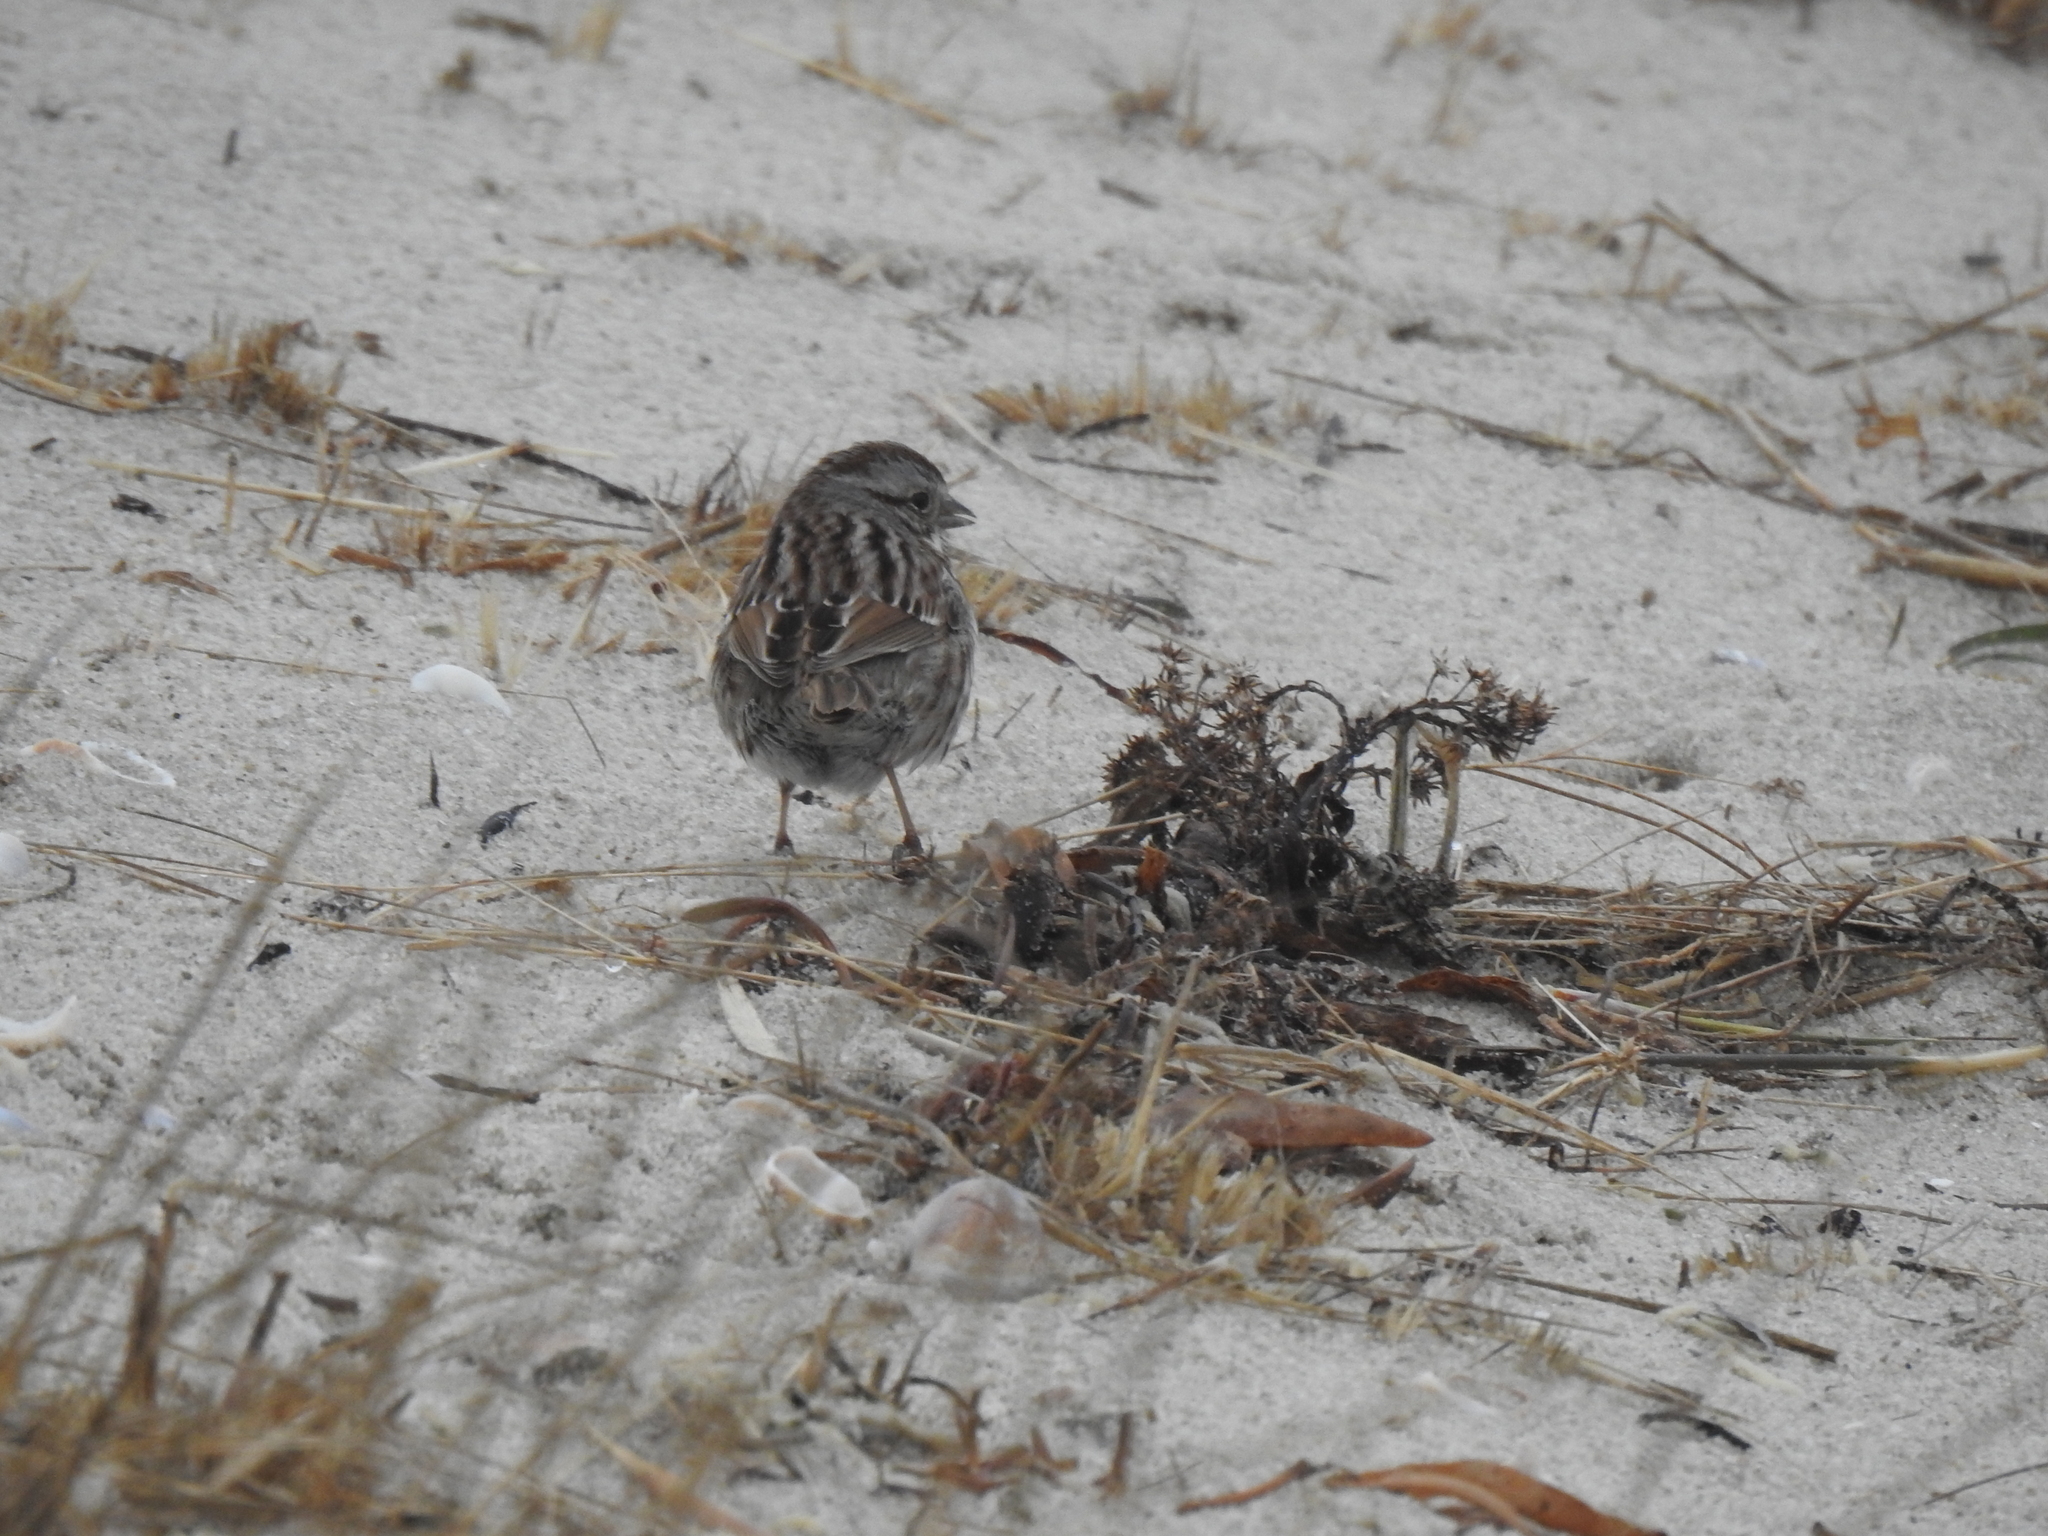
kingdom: Animalia
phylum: Chordata
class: Aves
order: Passeriformes
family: Passerellidae
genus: Melospiza
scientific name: Melospiza melodia
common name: Song sparrow
